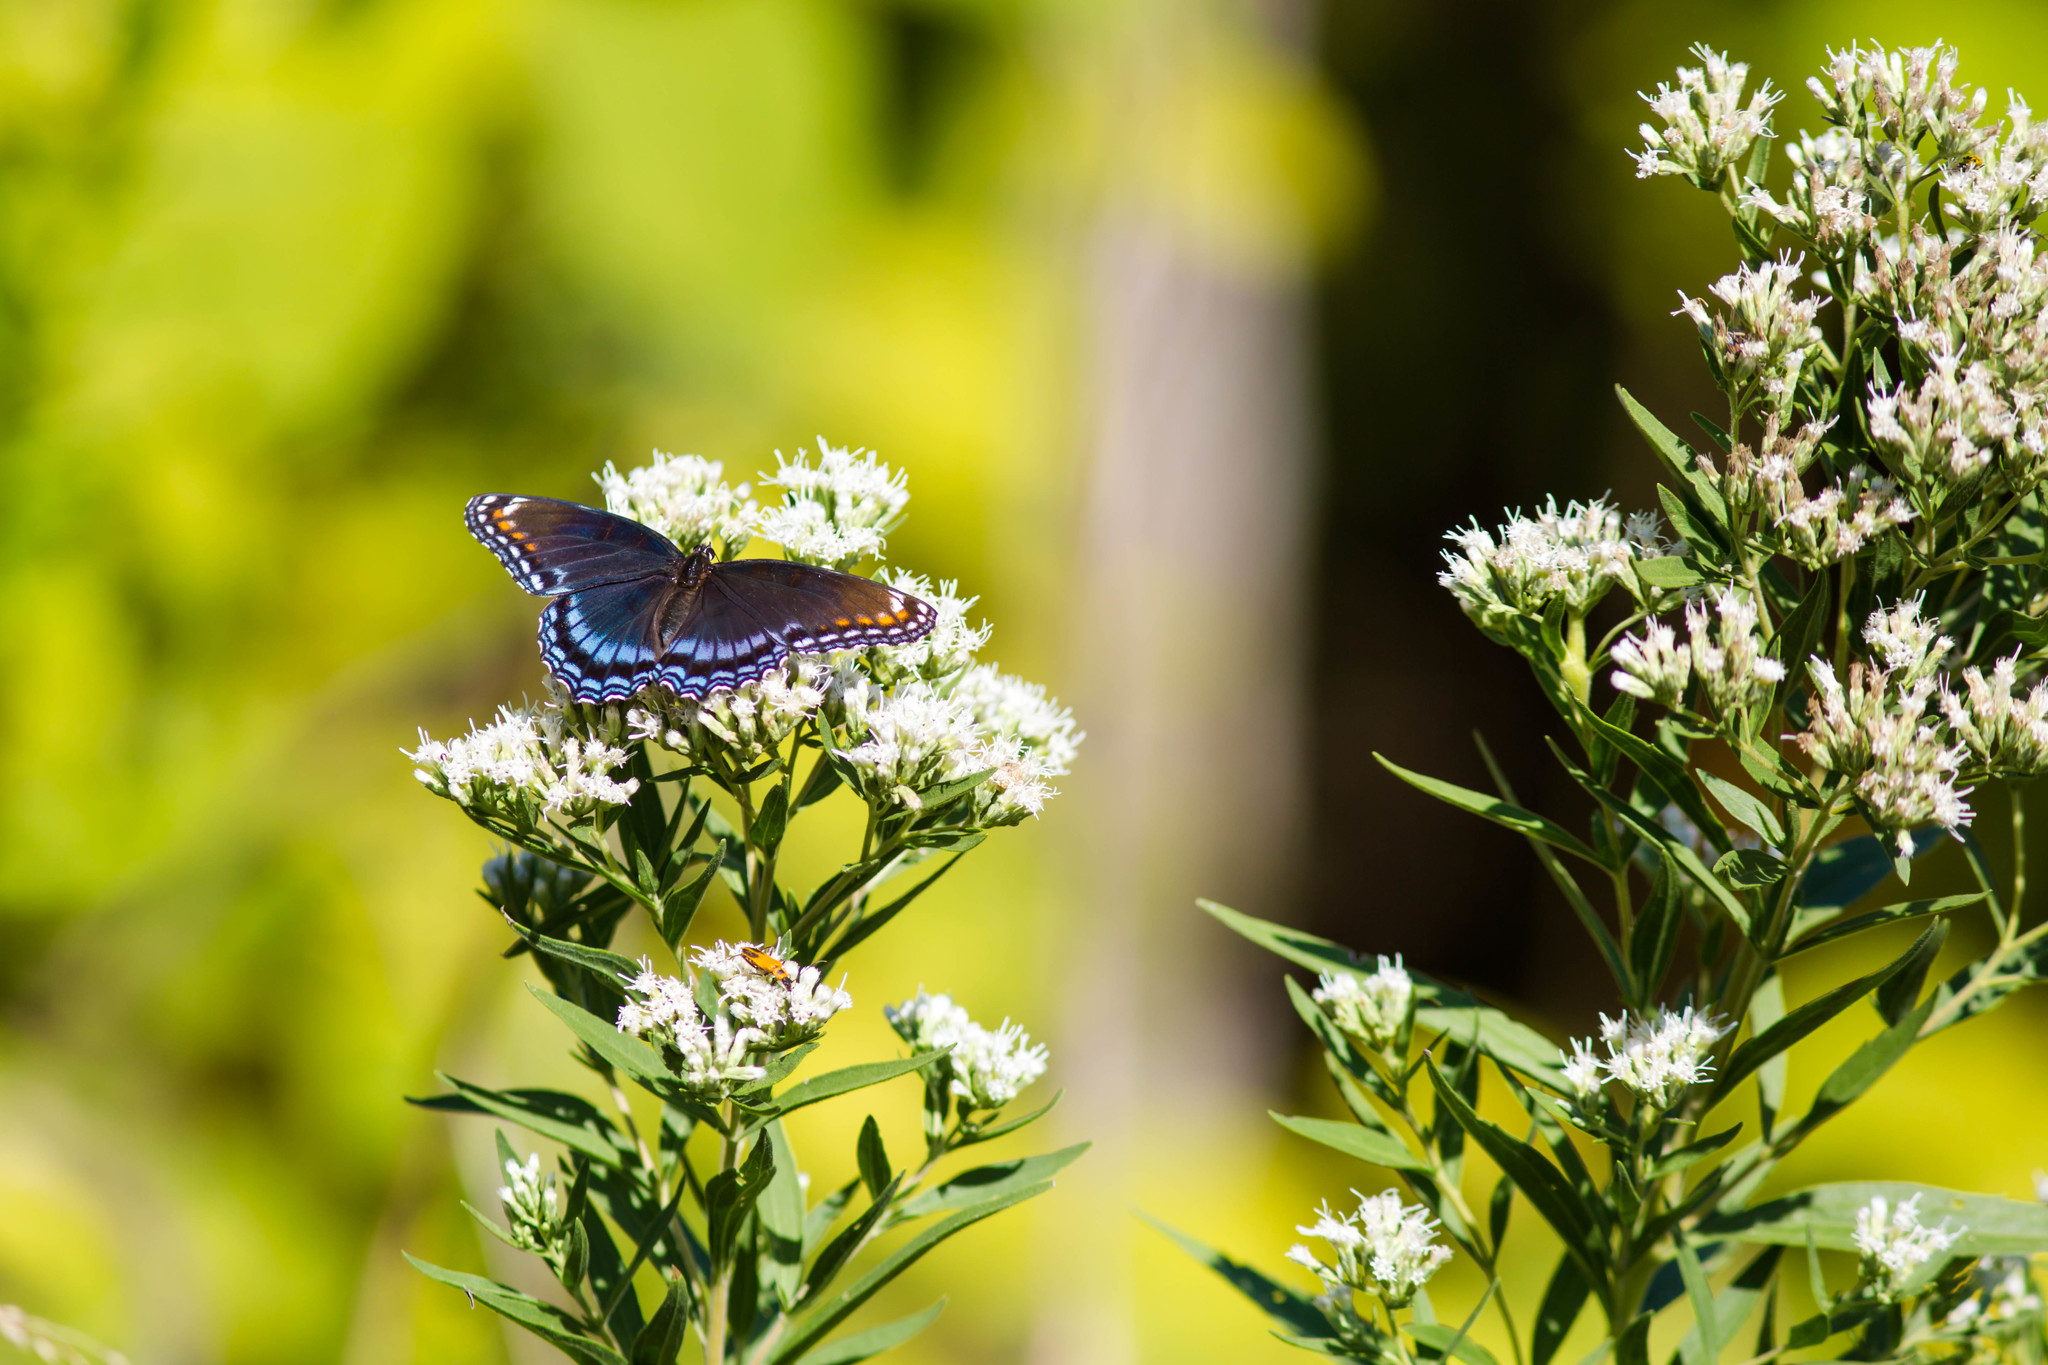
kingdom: Animalia
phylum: Arthropoda
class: Insecta
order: Lepidoptera
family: Nymphalidae
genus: Limenitis
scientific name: Limenitis astyanax
